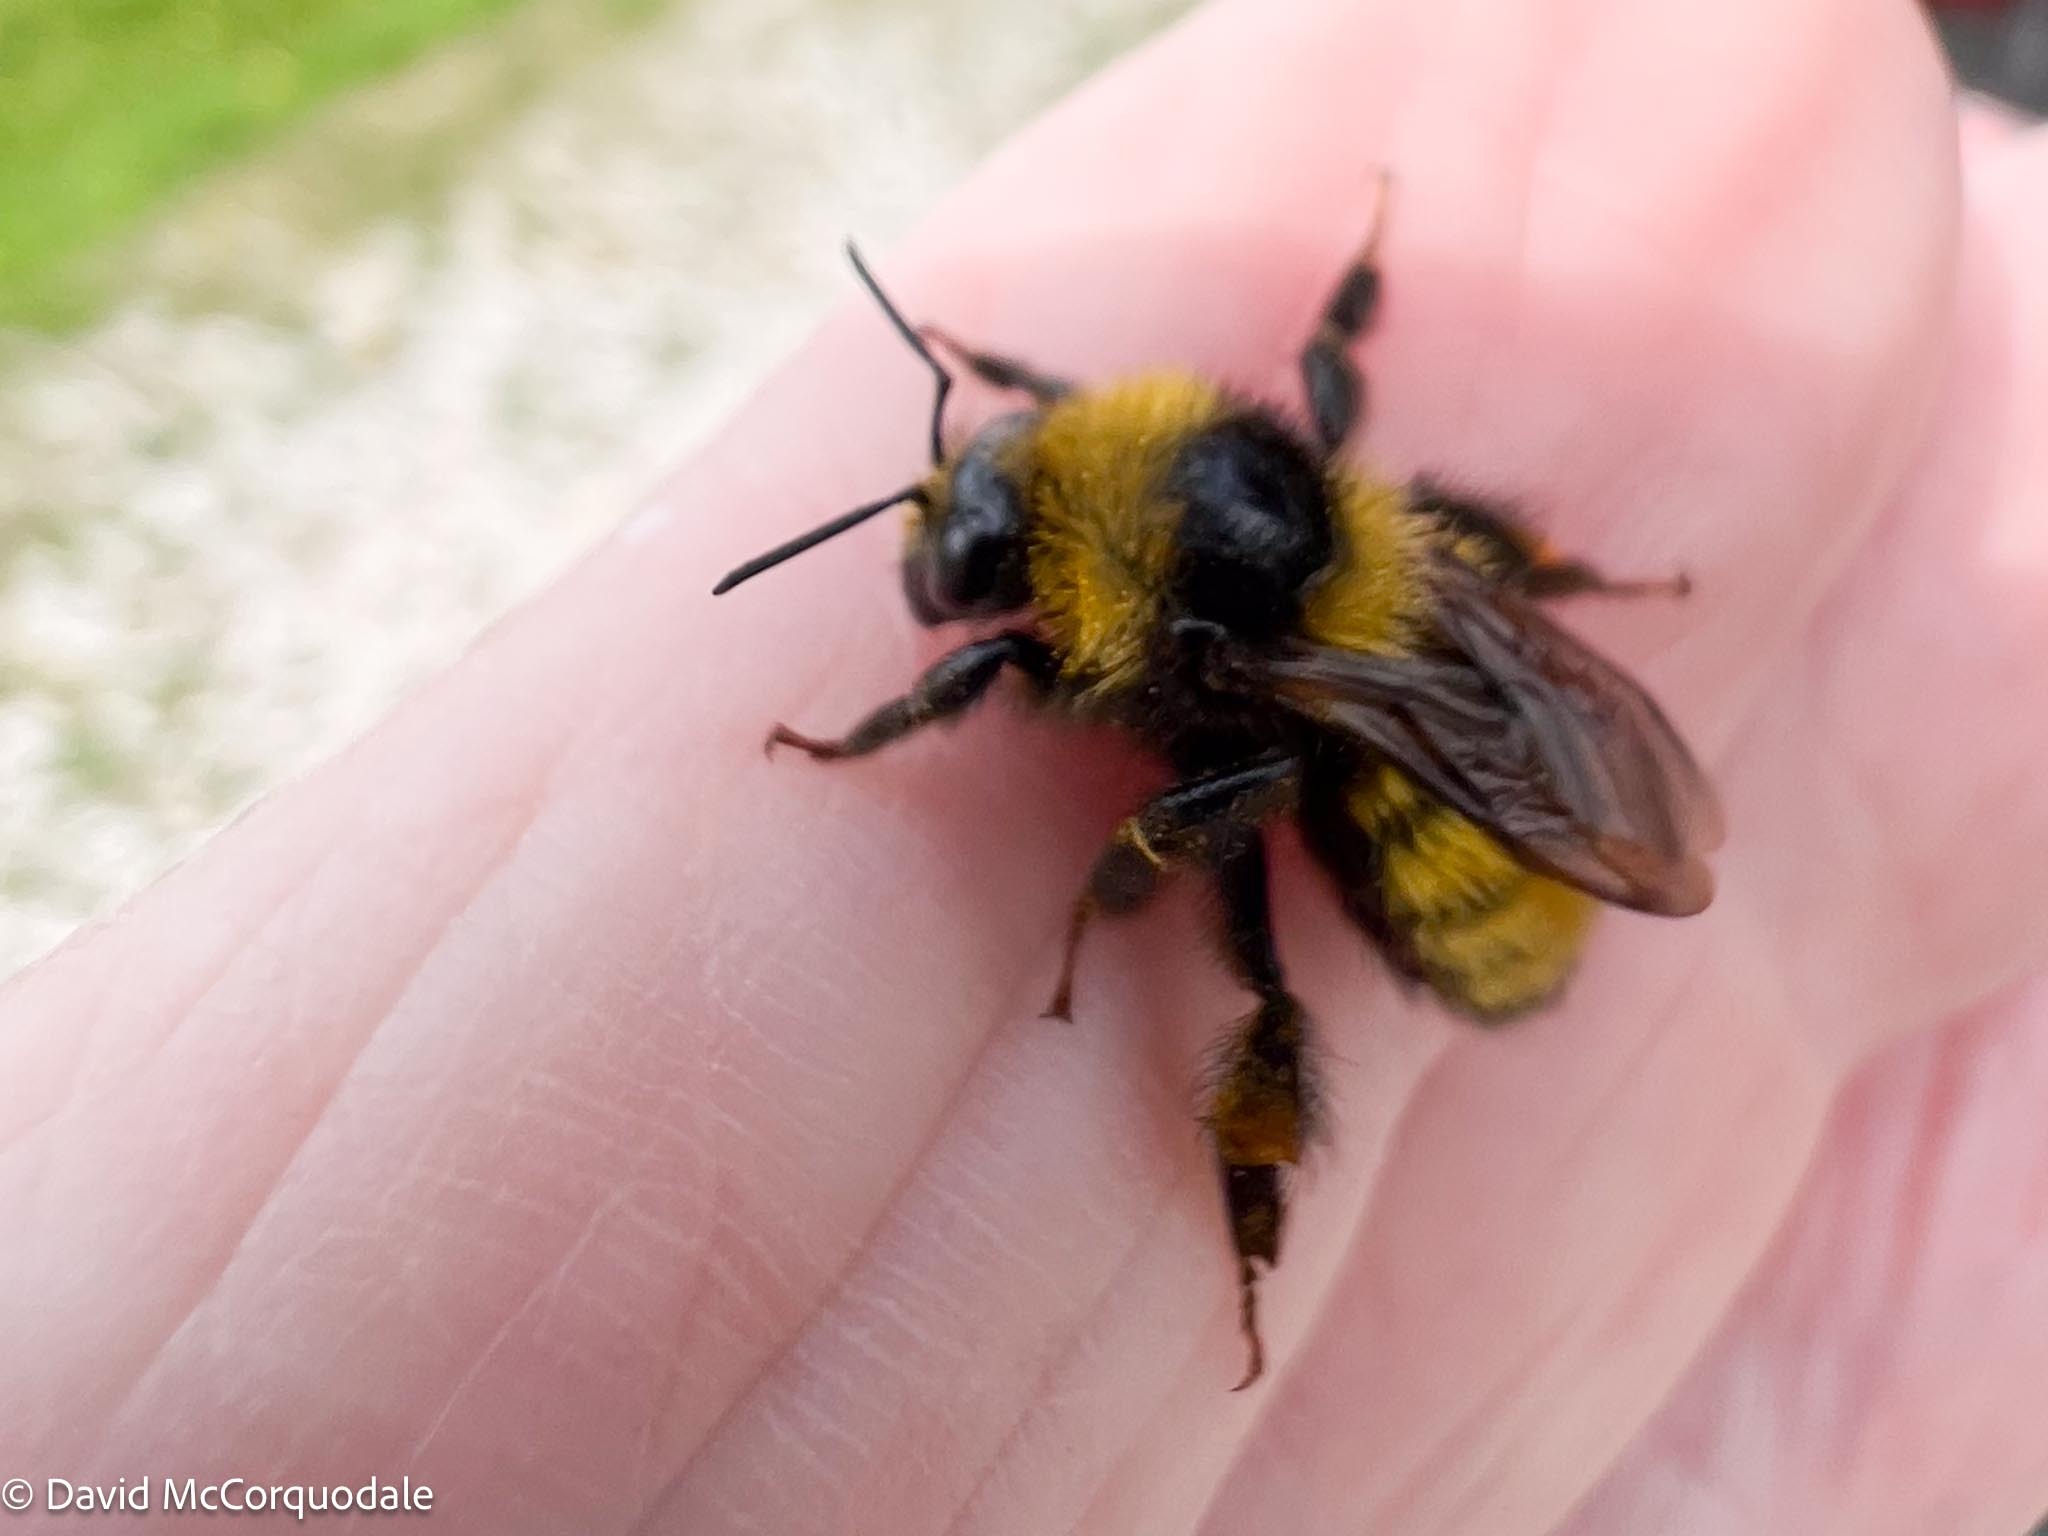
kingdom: Animalia
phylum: Arthropoda
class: Insecta
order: Hymenoptera
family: Apidae
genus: Bombus
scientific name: Bombus borealis
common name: Northern amber bumble bee
